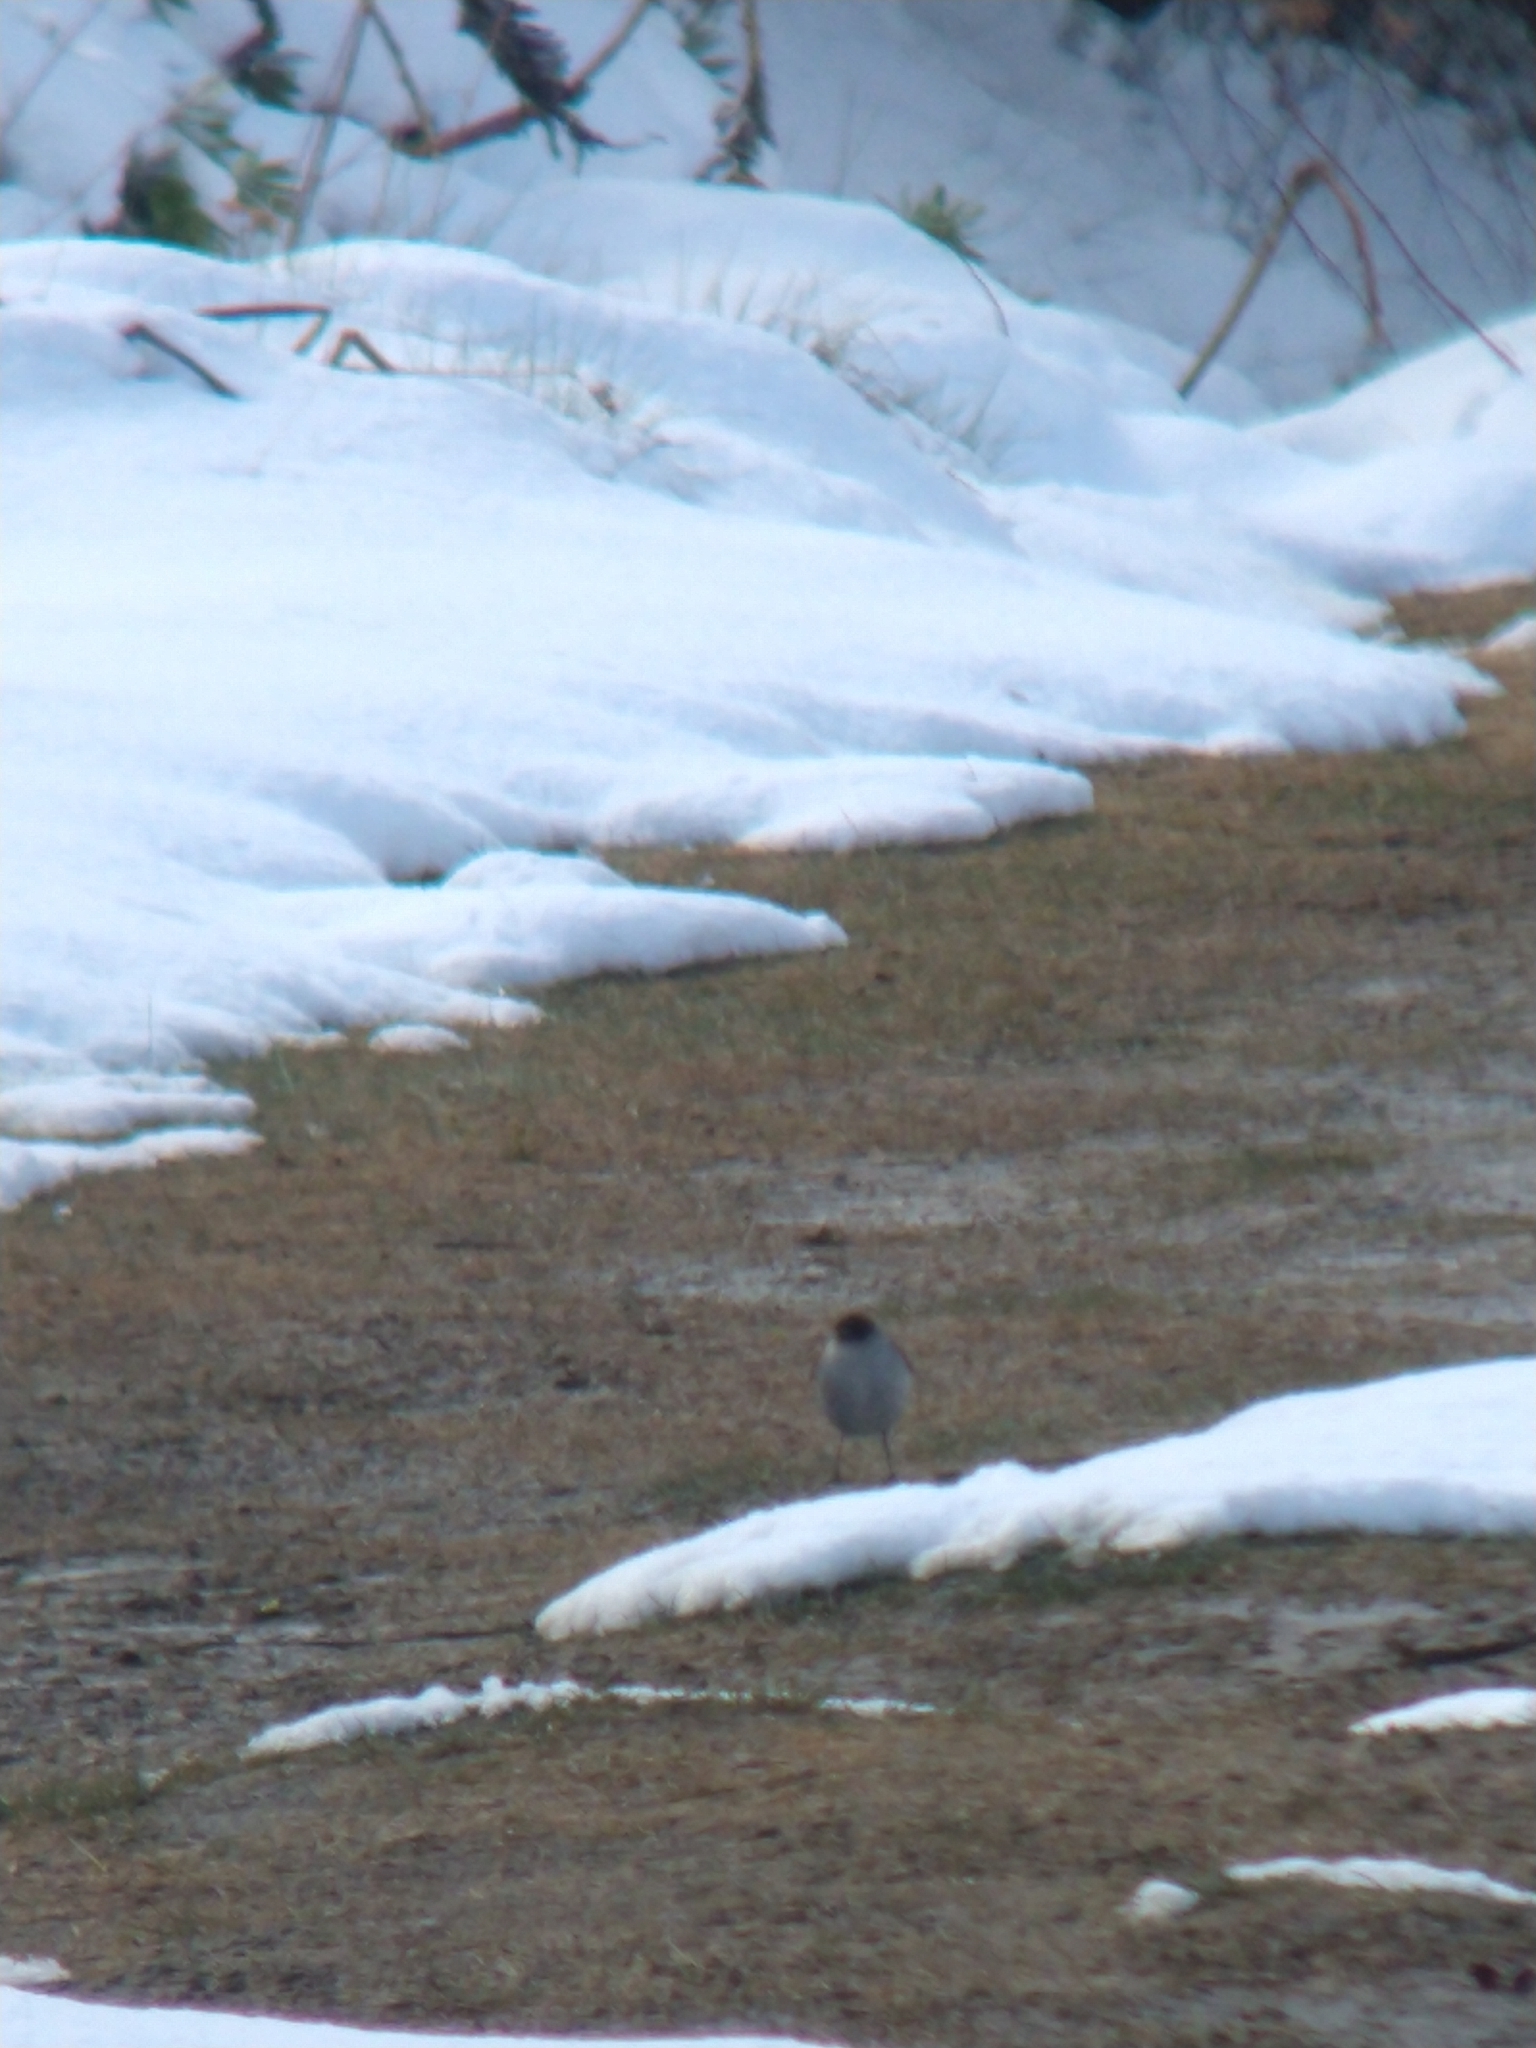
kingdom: Animalia
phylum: Chordata
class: Aves
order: Passeriformes
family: Tyrannidae
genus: Muscisaxicola
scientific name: Muscisaxicola maclovianus
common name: Dark-faced ground tyrant
